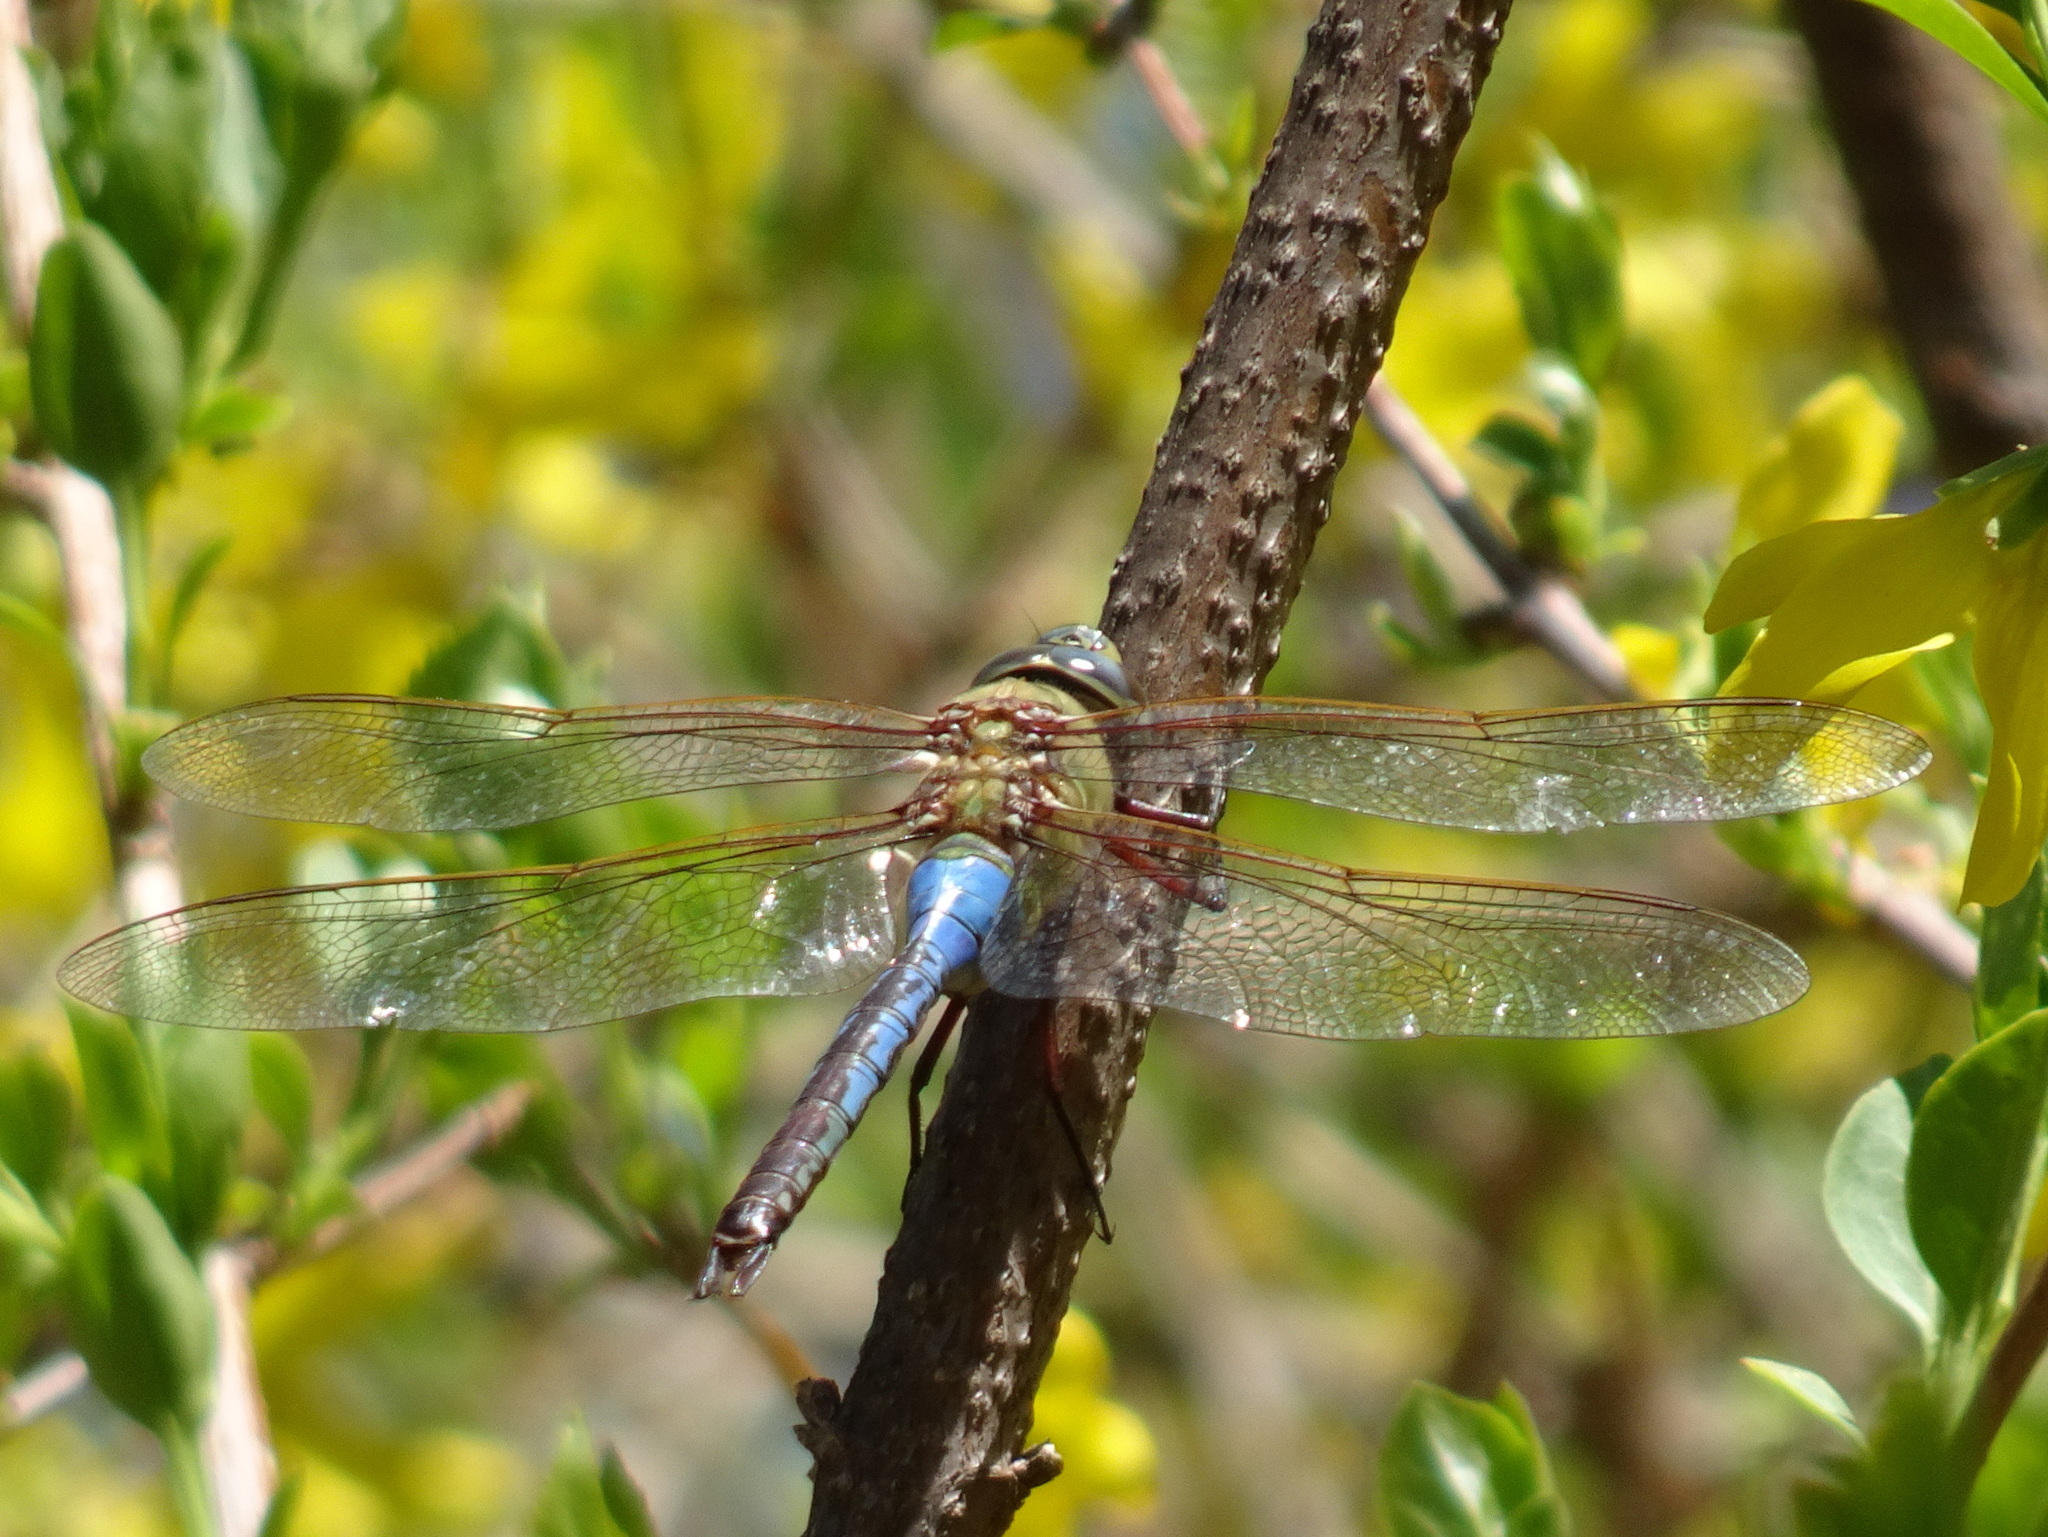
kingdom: Animalia
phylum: Arthropoda
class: Insecta
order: Odonata
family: Aeshnidae
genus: Anax
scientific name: Anax junius
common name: Common green darner
